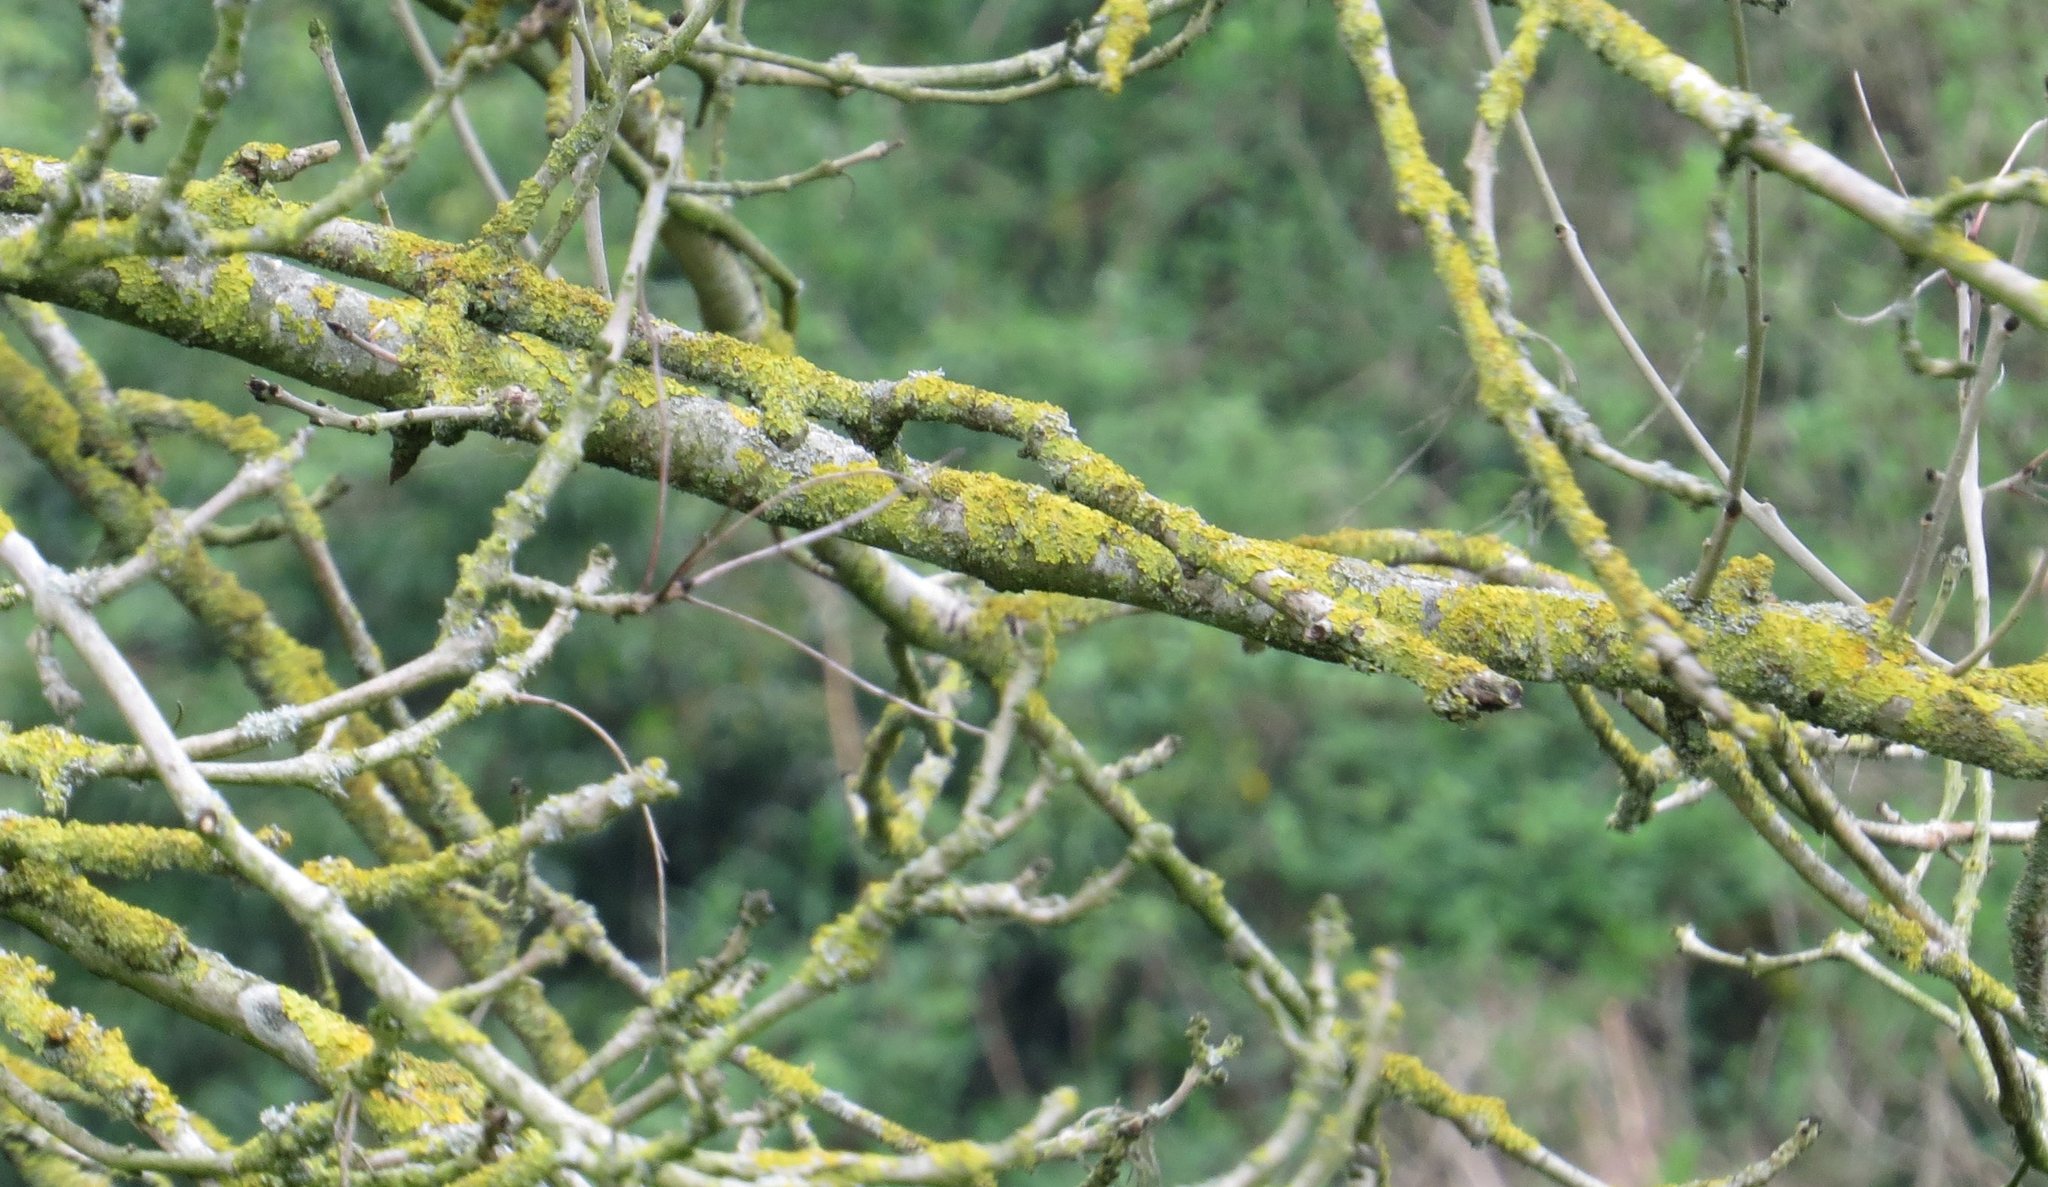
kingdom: Fungi
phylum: Ascomycota
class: Lecanoromycetes
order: Teloschistales
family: Teloschistaceae
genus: Xanthoria
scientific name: Xanthoria parietina
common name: Common orange lichen
